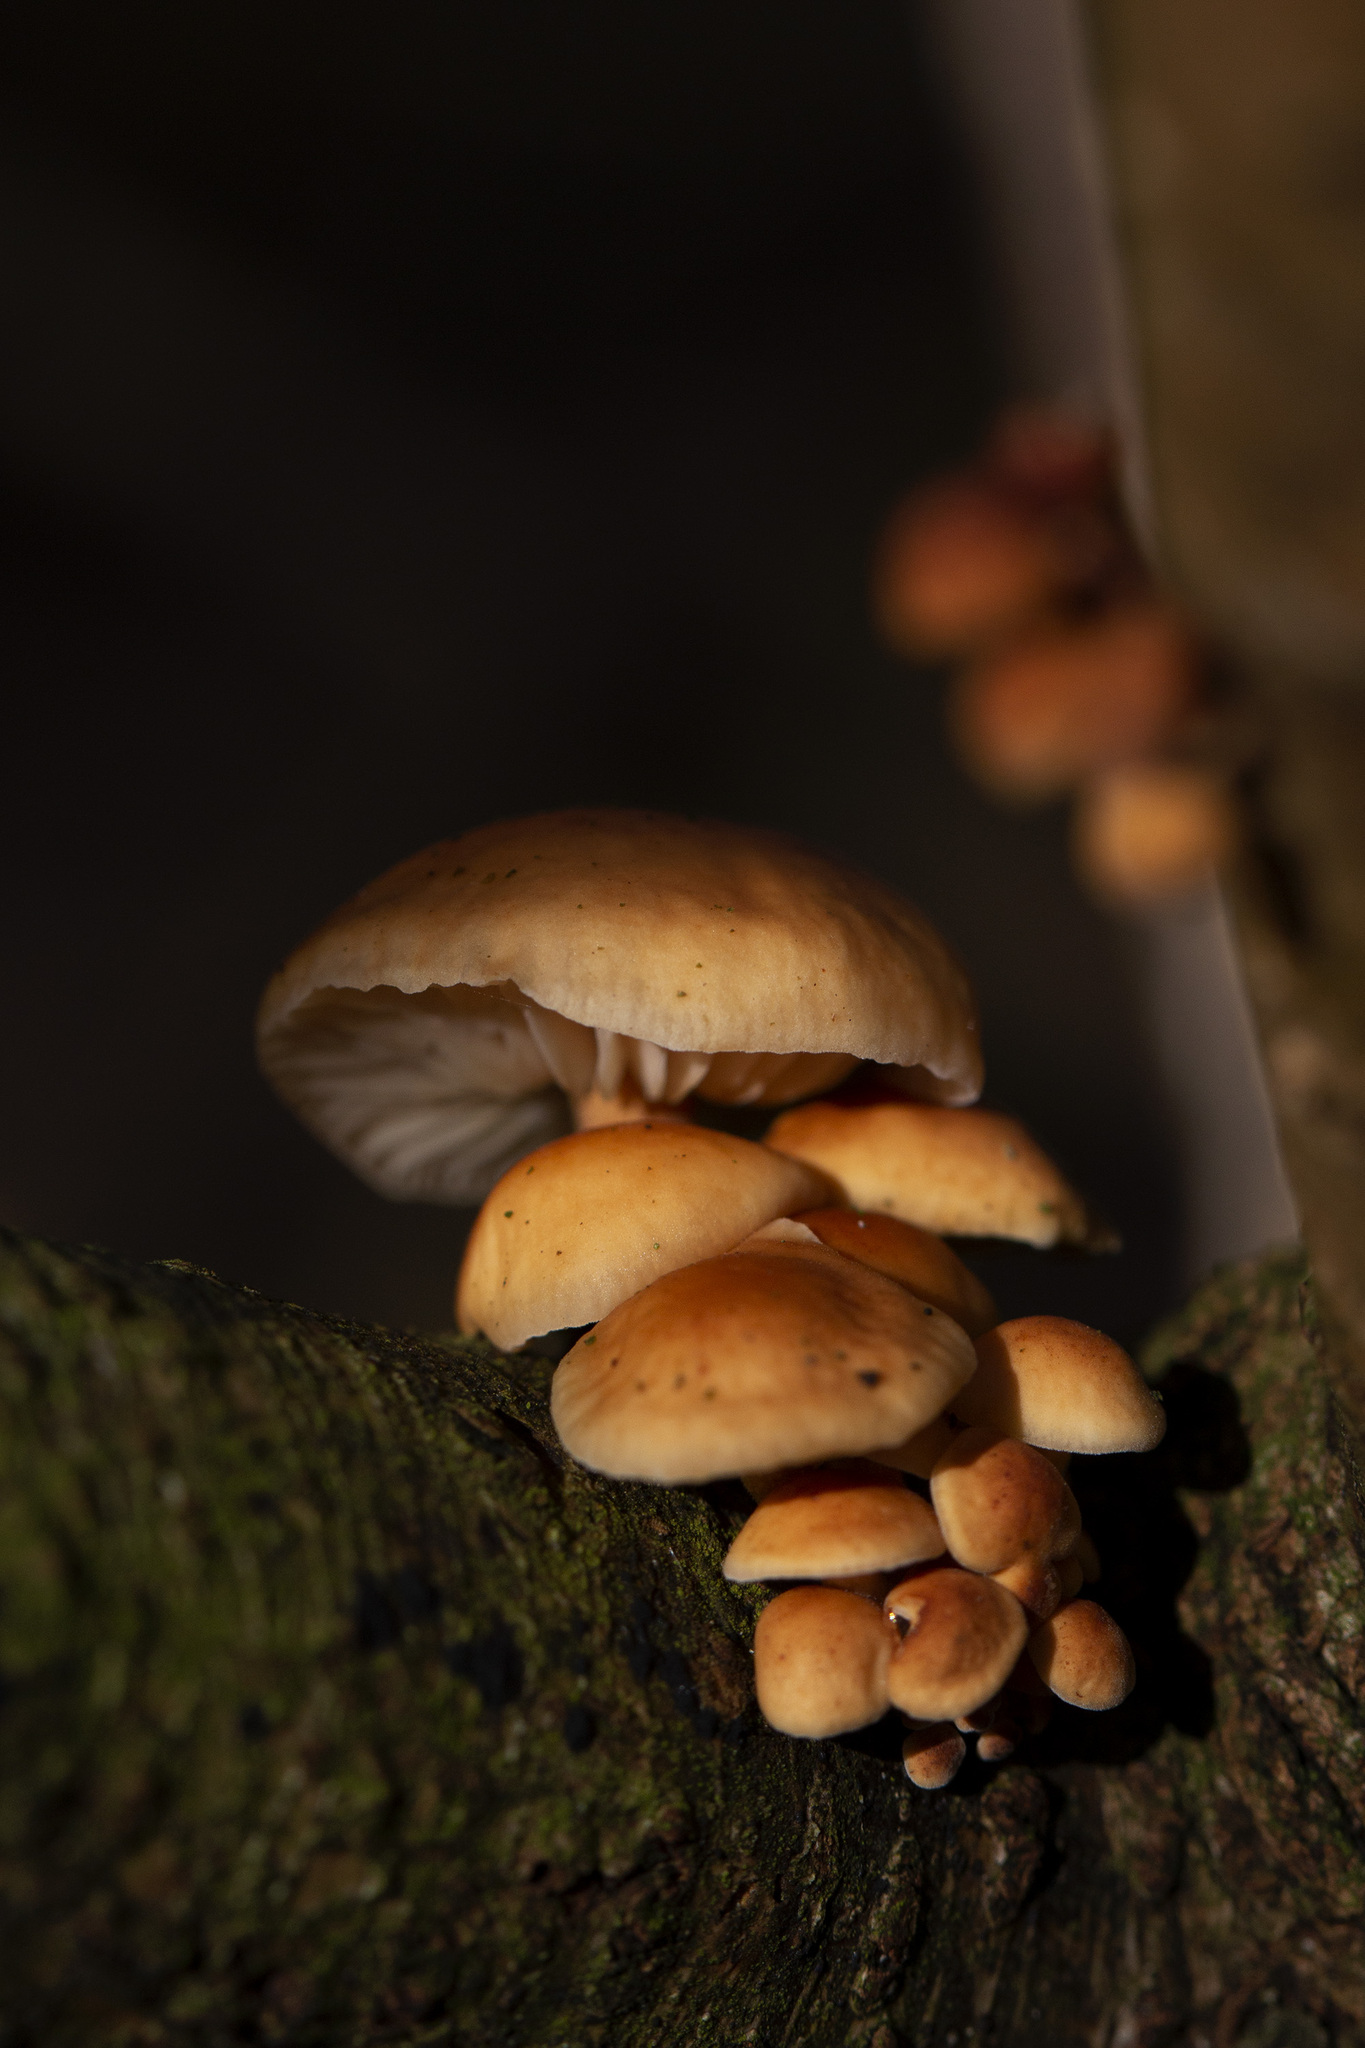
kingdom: Fungi
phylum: Basidiomycota
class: Agaricomycetes
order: Agaricales
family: Physalacriaceae
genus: Flammulina
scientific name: Flammulina
